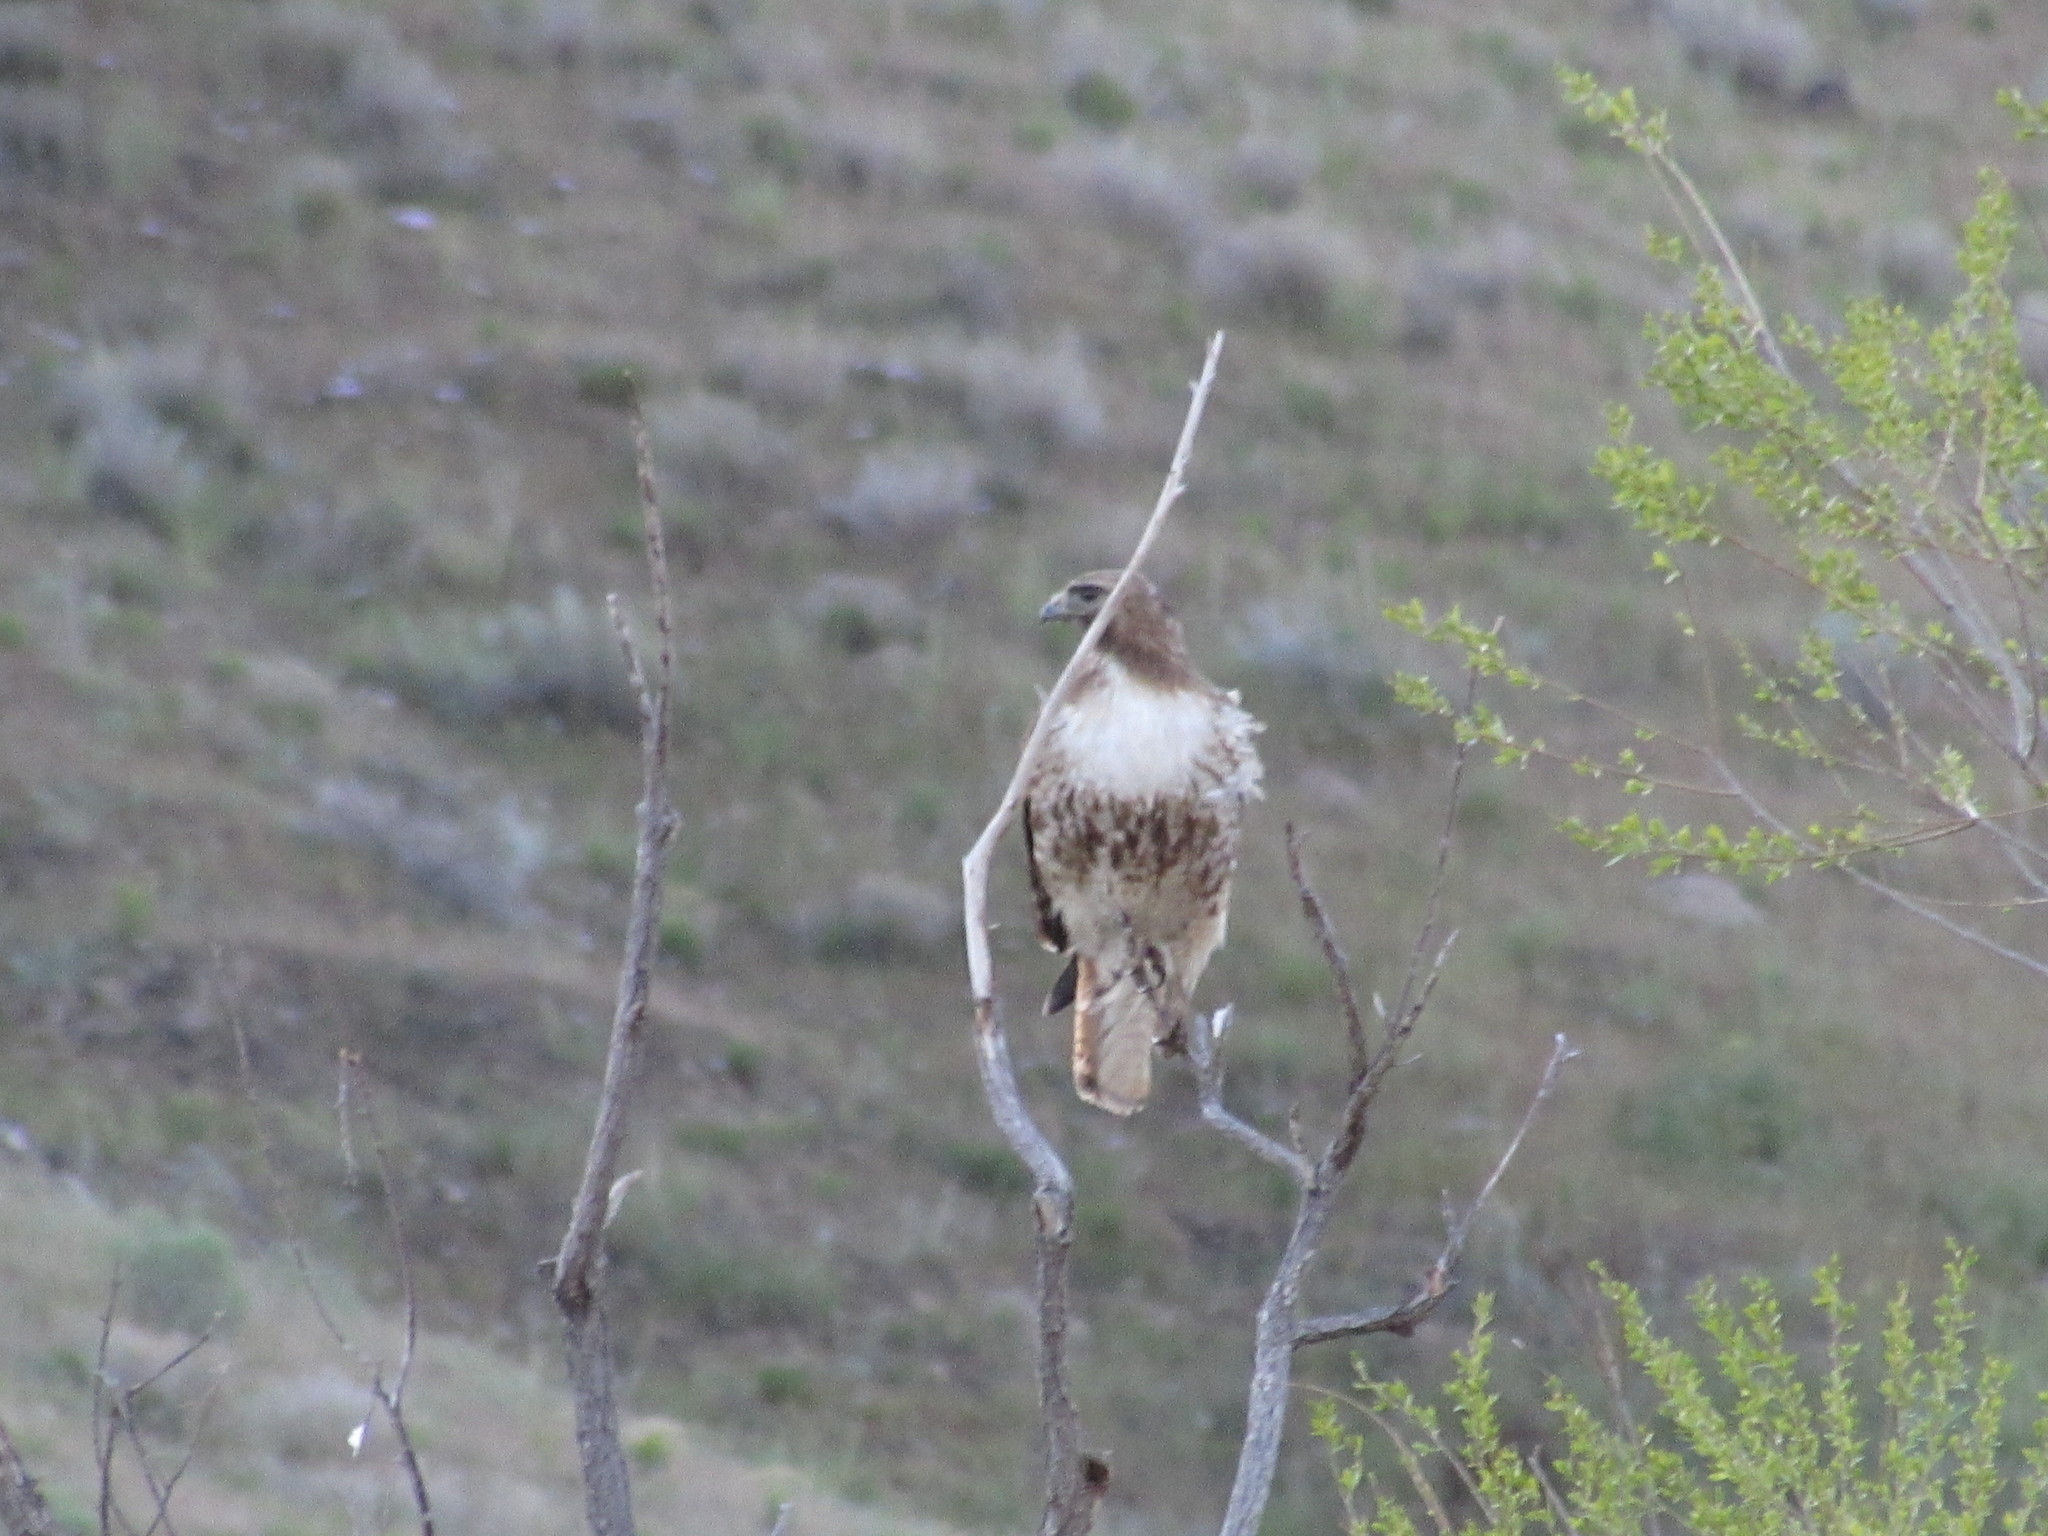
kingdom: Animalia
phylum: Chordata
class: Aves
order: Accipitriformes
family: Accipitridae
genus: Buteo
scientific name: Buteo jamaicensis
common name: Red-tailed hawk
